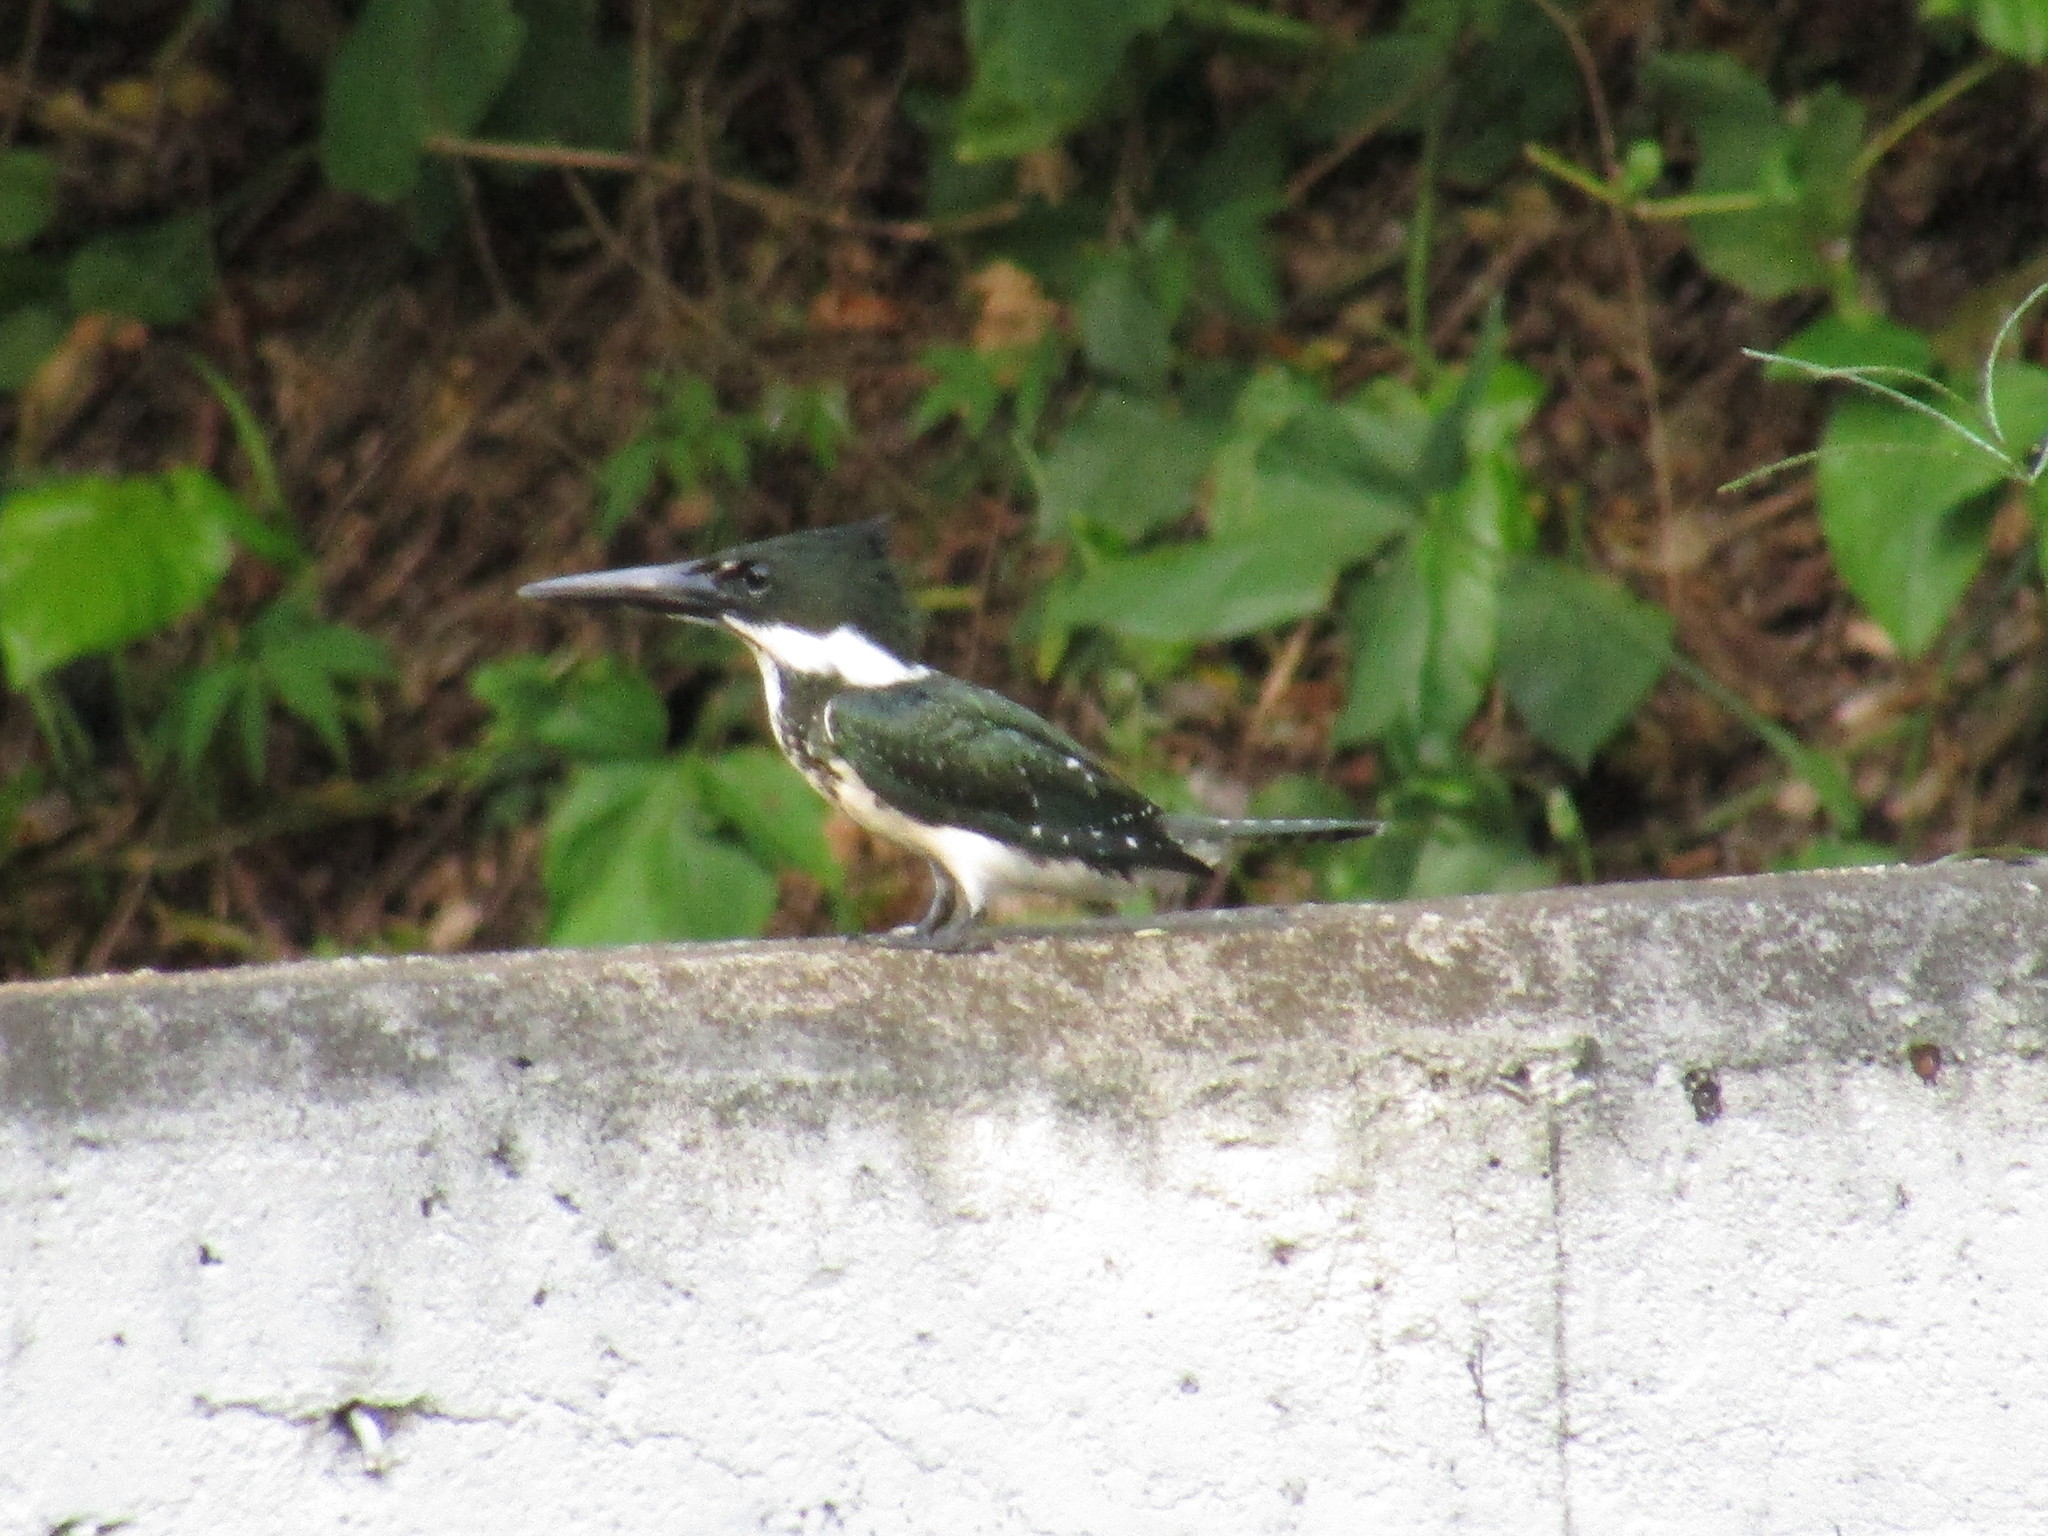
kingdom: Animalia
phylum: Chordata
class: Aves
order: Coraciiformes
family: Alcedinidae
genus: Chloroceryle
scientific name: Chloroceryle amazona
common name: Amazon kingfisher
